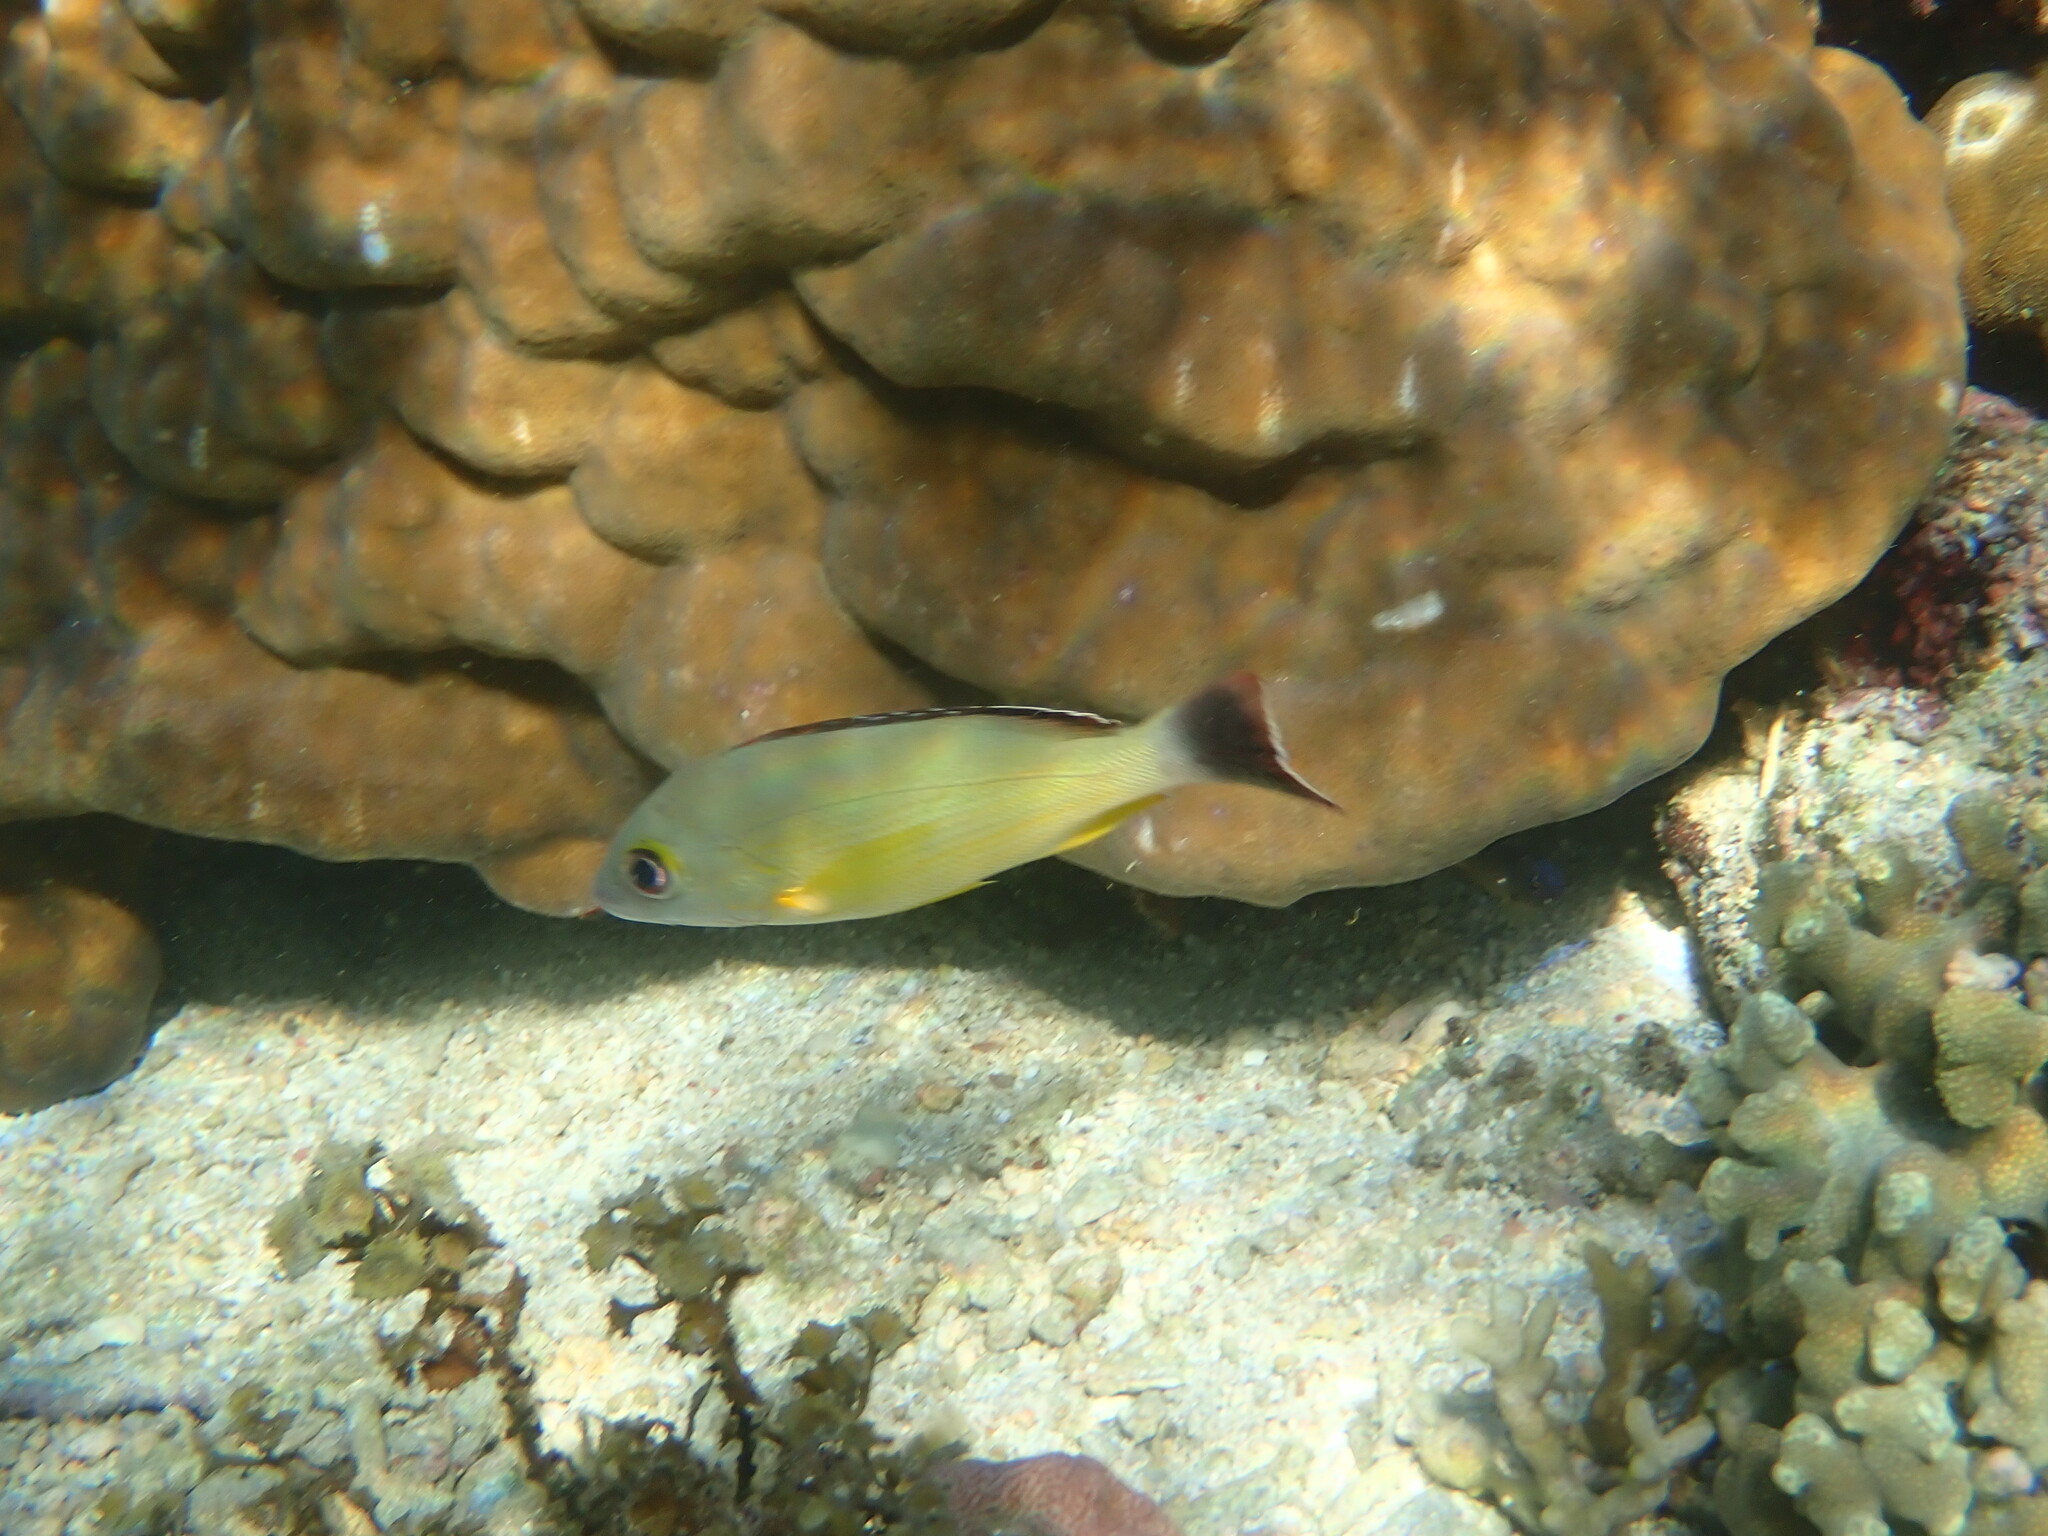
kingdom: Animalia
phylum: Chordata
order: Perciformes
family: Lutjanidae
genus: Lutjanus
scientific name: Lutjanus fulvus
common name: Blacktail snapper
